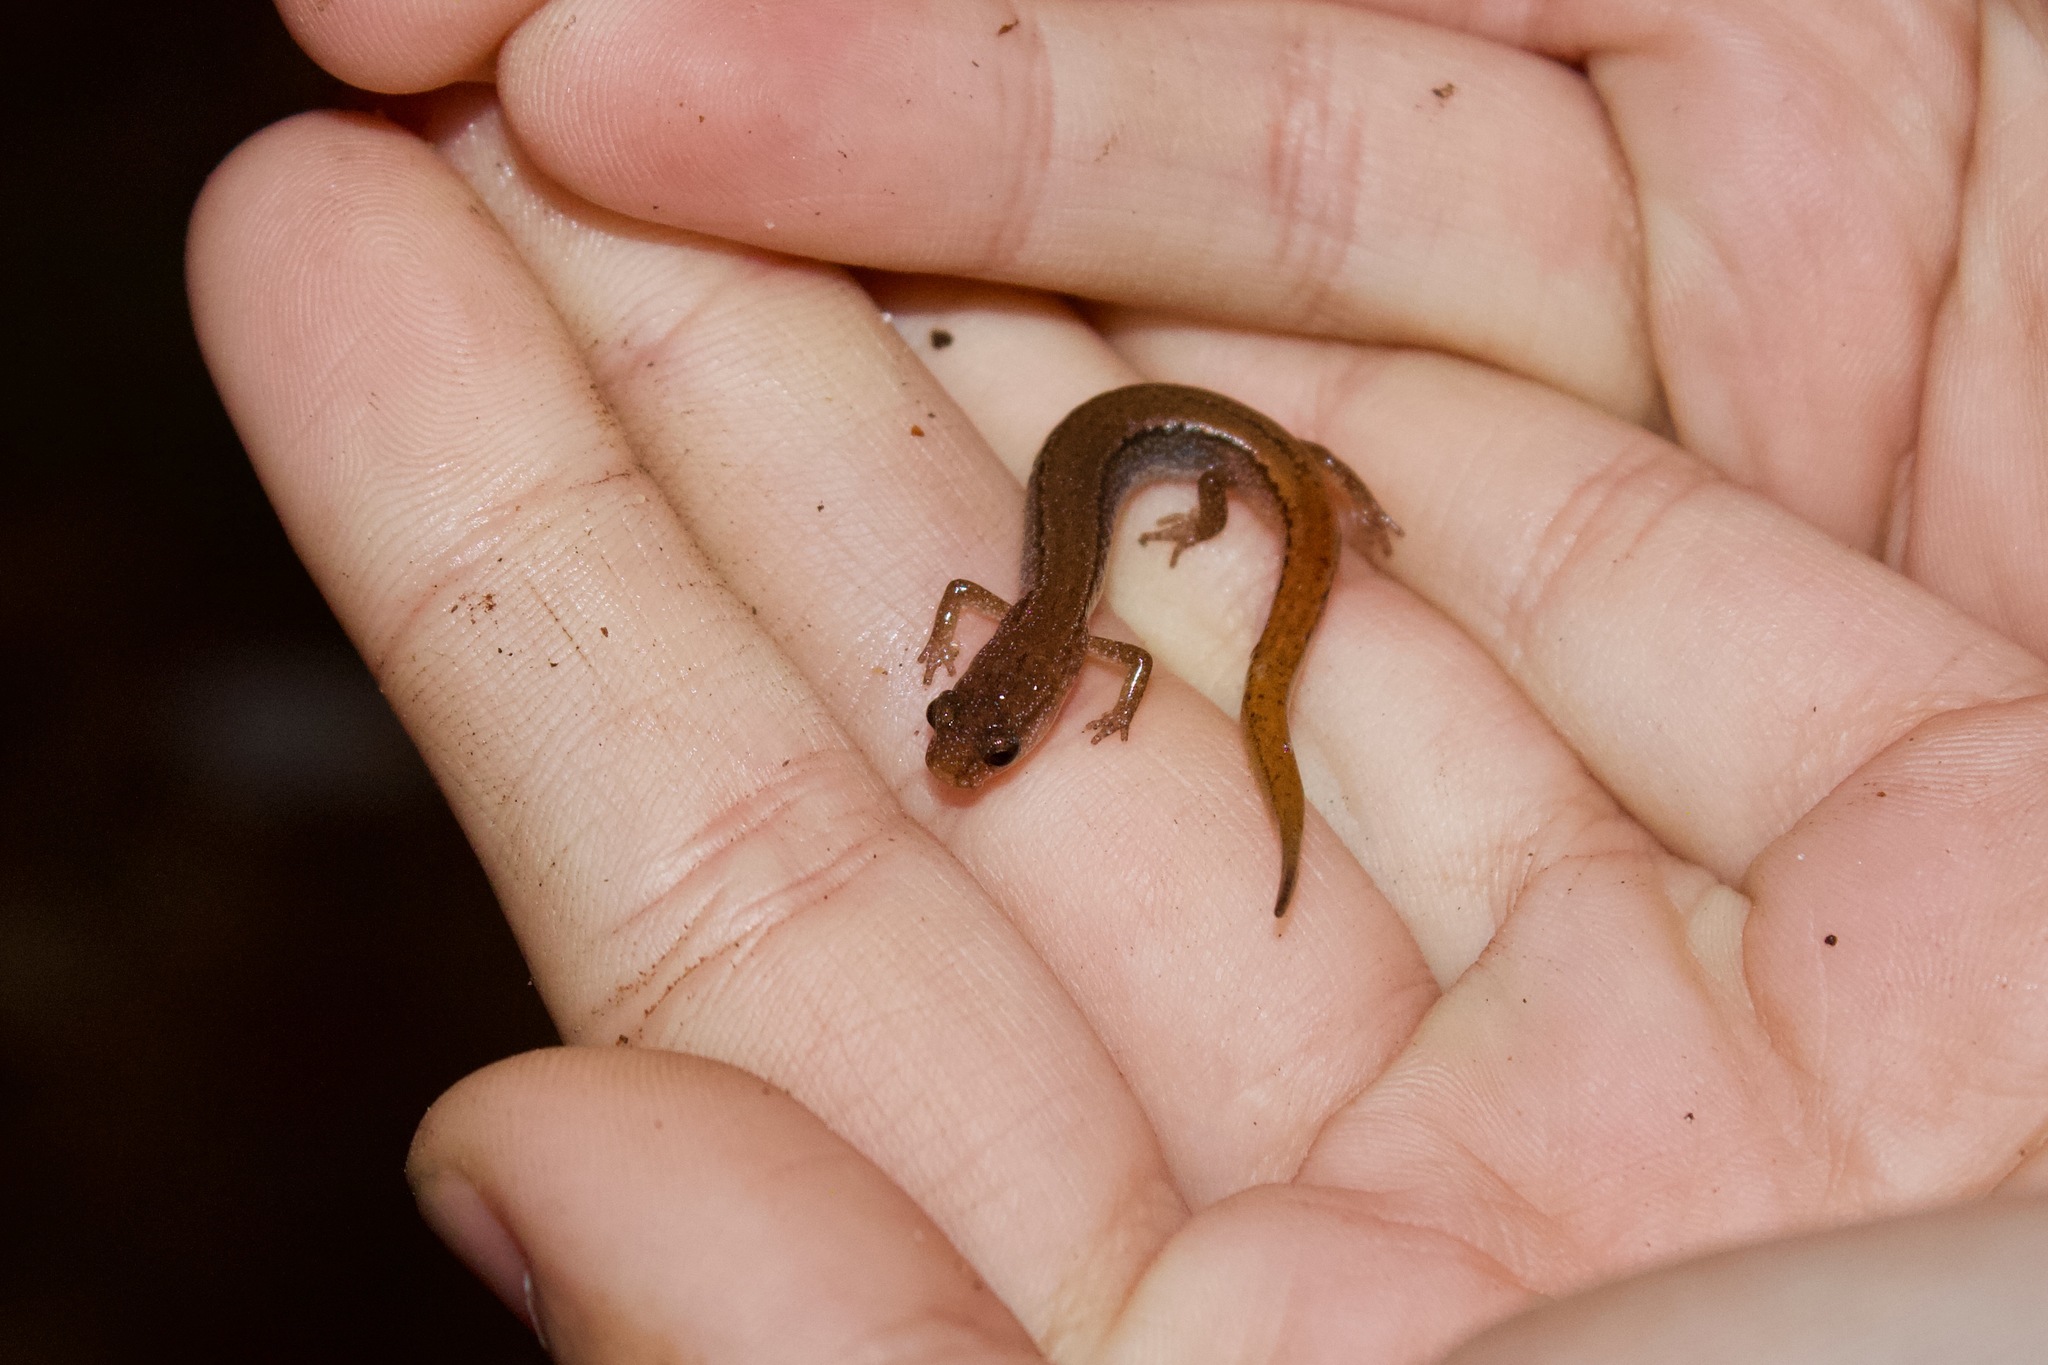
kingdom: Animalia
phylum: Chordata
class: Amphibia
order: Caudata
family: Plethodontidae
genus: Eurycea
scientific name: Eurycea paludicola
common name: Western dwarf salamander
